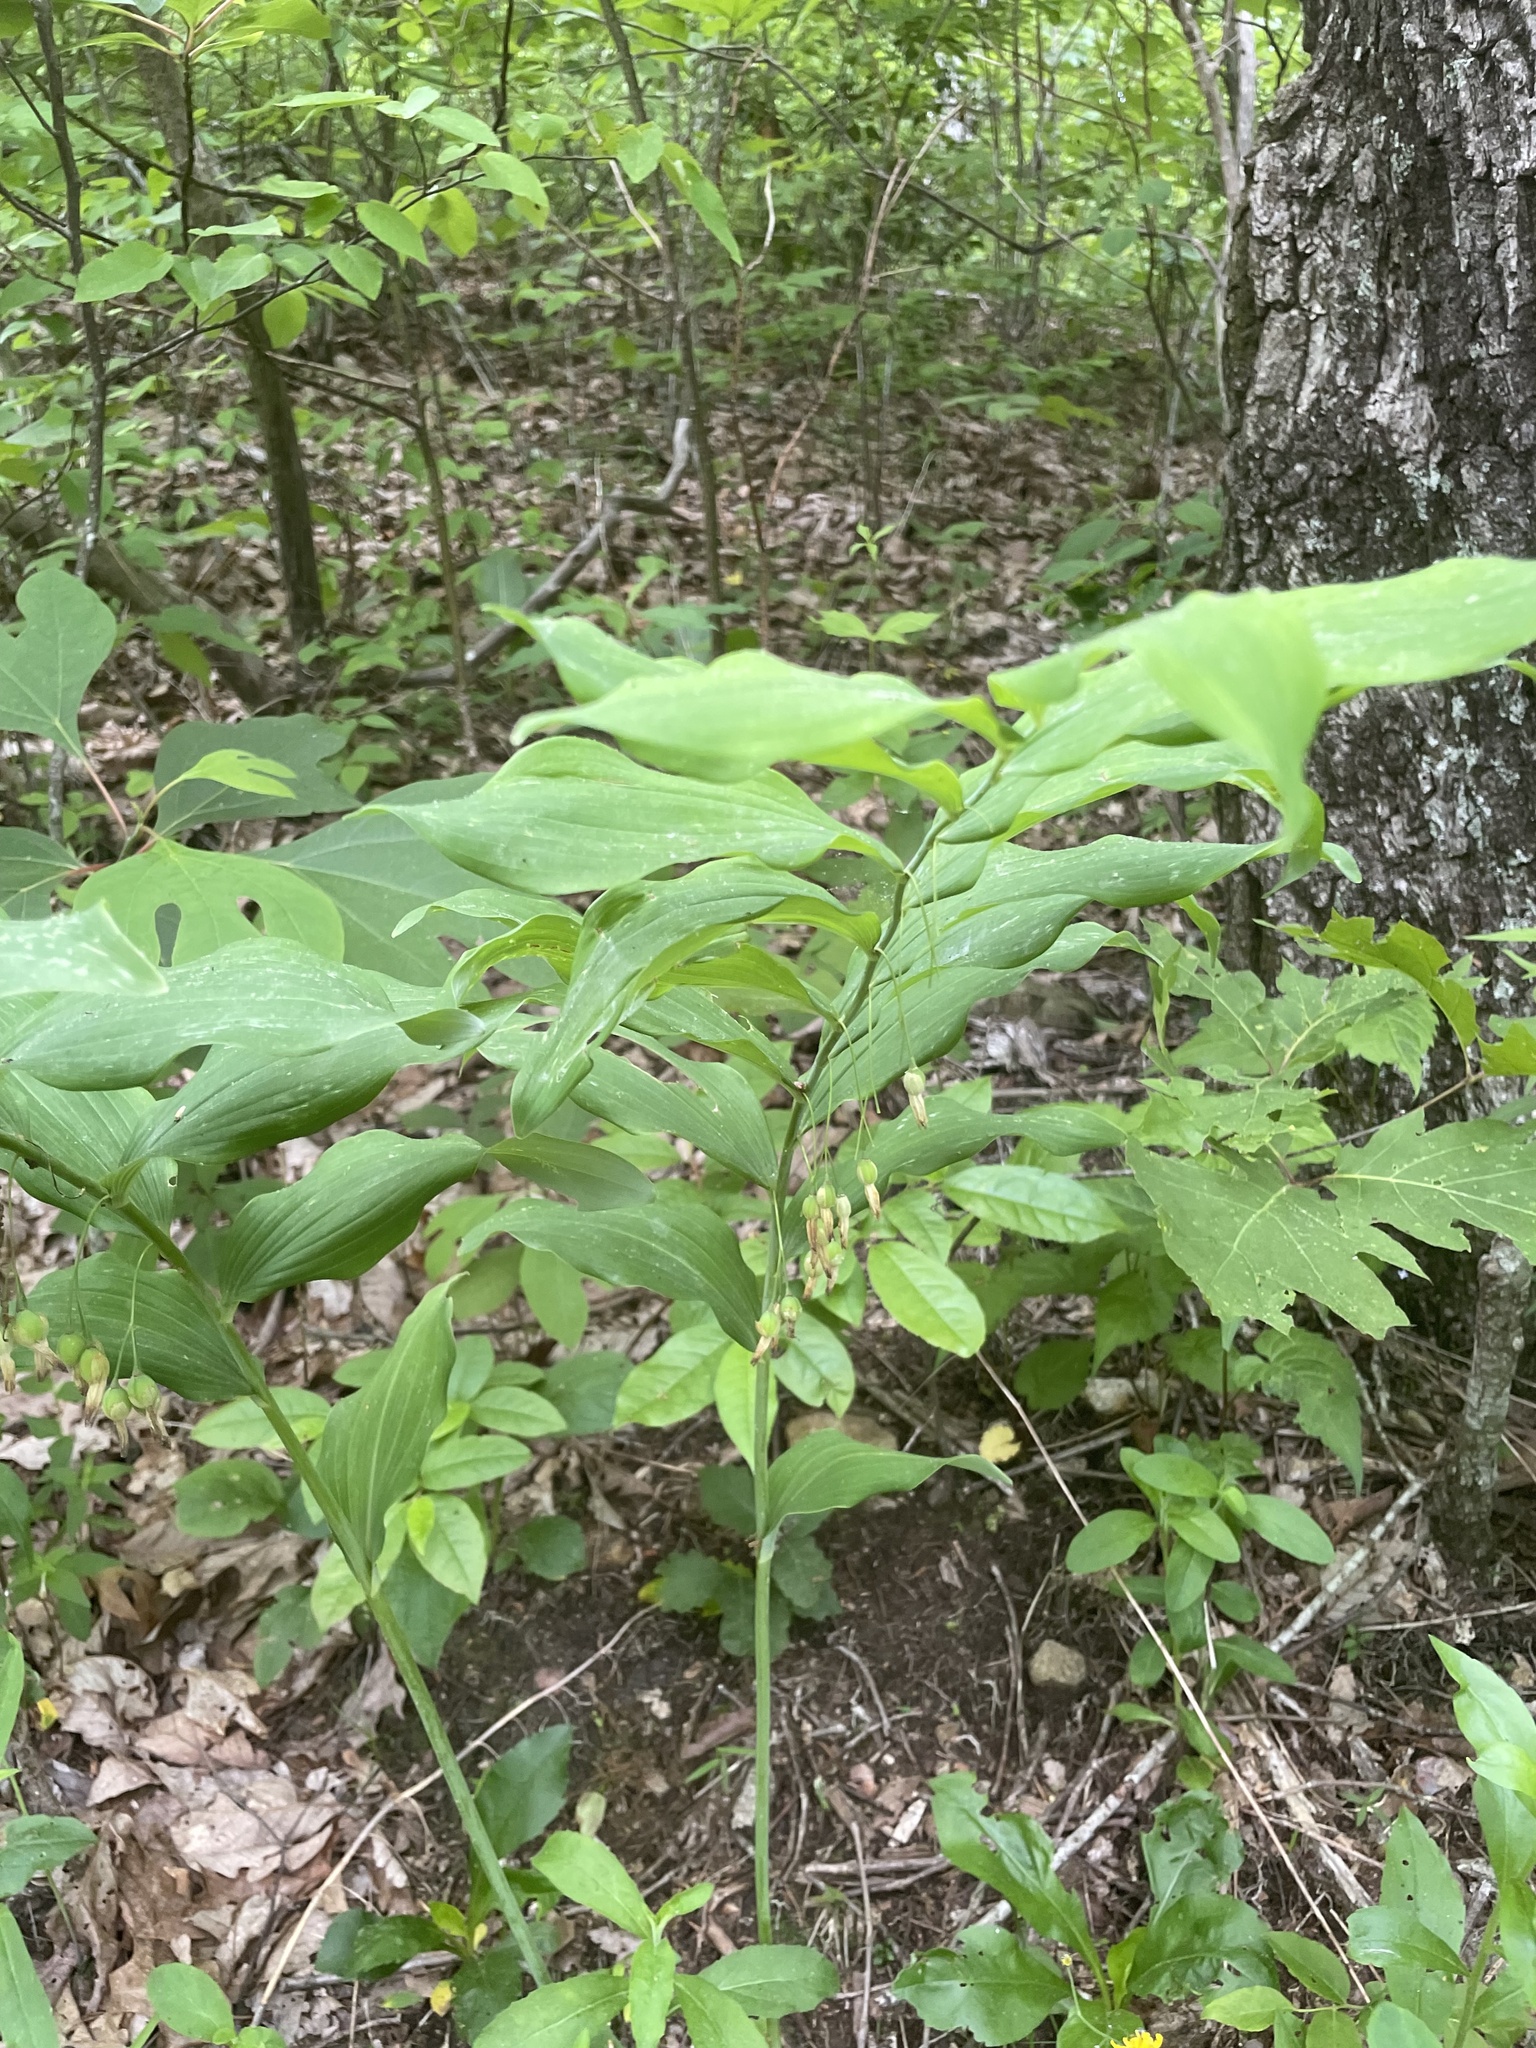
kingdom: Plantae
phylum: Tracheophyta
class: Liliopsida
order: Asparagales
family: Asparagaceae
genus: Polygonatum
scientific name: Polygonatum biflorum
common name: American solomon's-seal
